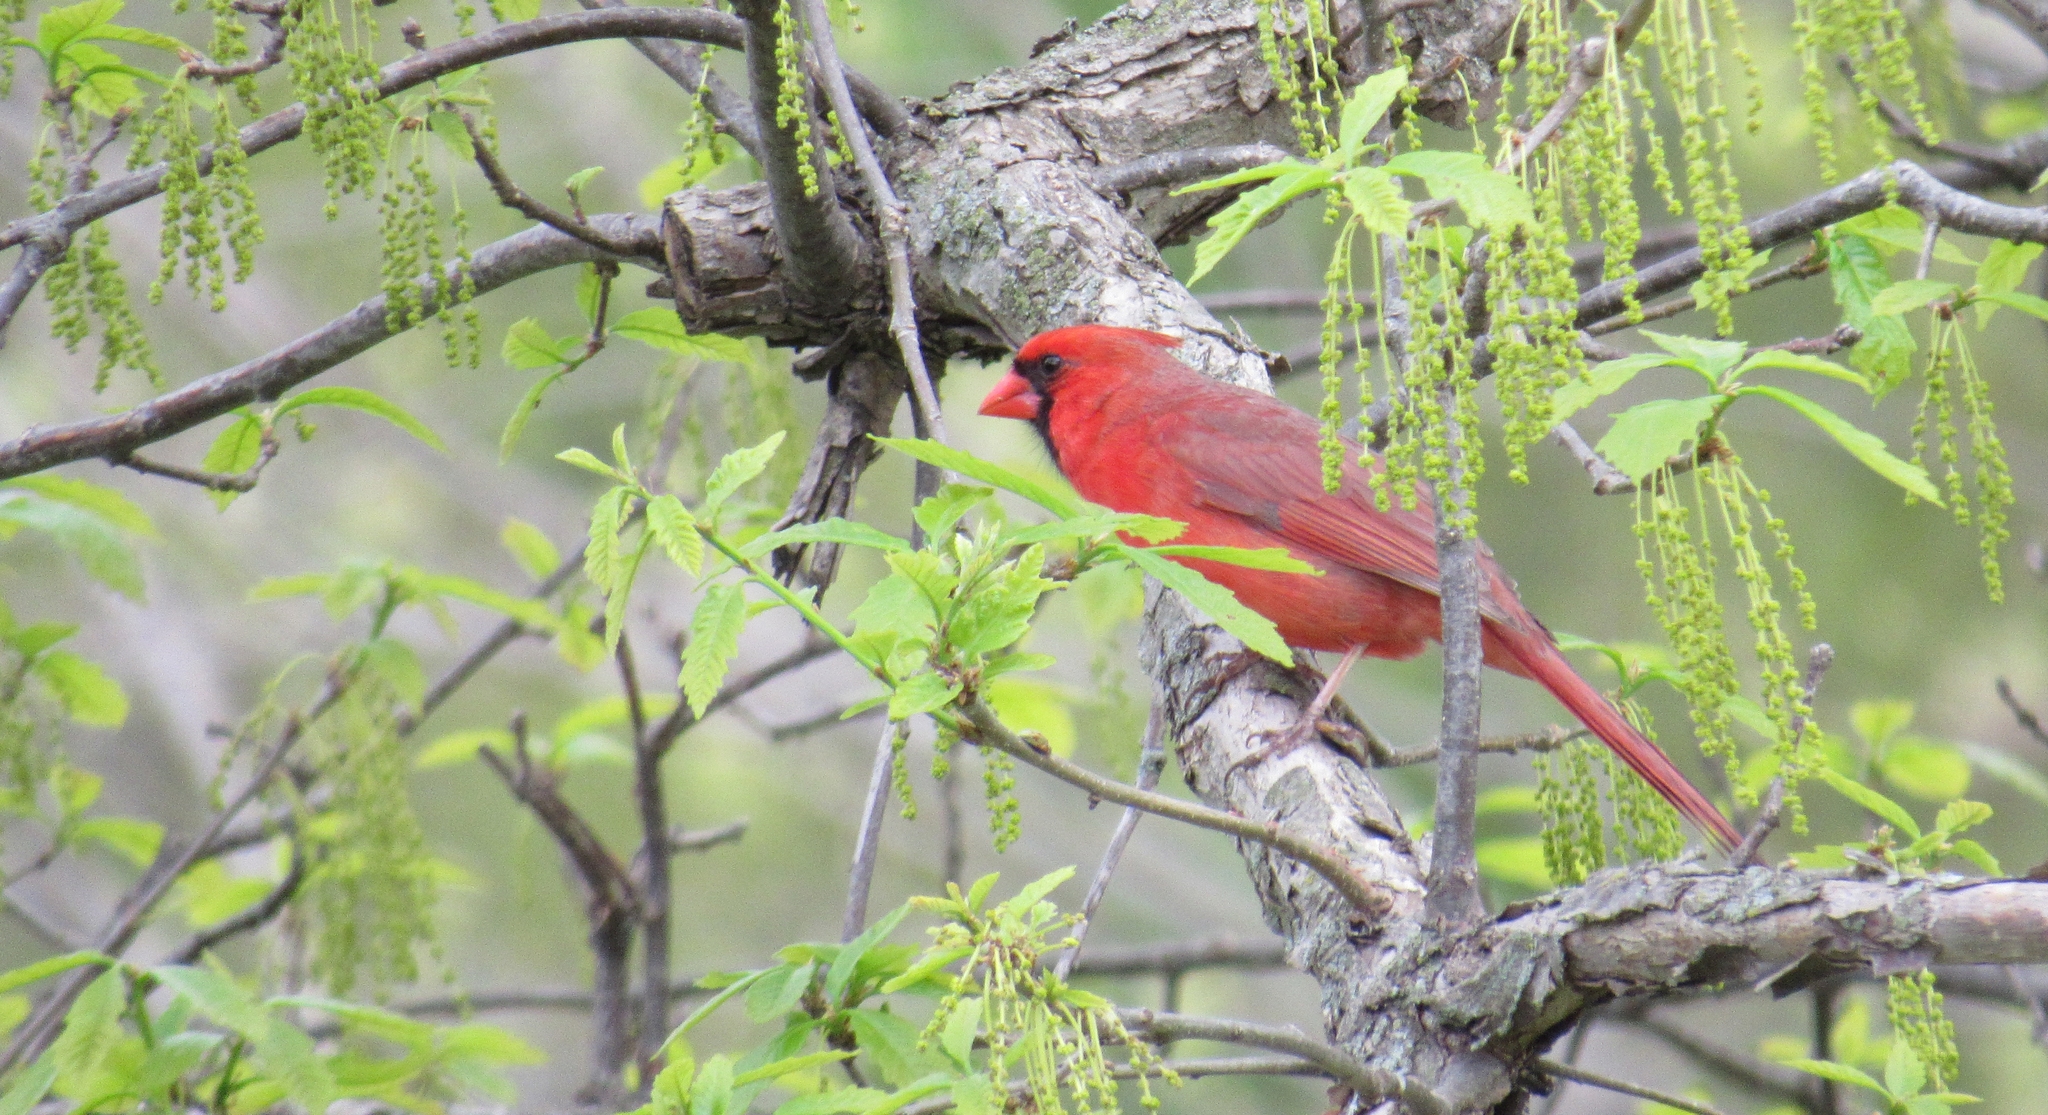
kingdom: Animalia
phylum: Chordata
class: Aves
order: Passeriformes
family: Cardinalidae
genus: Cardinalis
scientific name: Cardinalis cardinalis
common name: Northern cardinal
